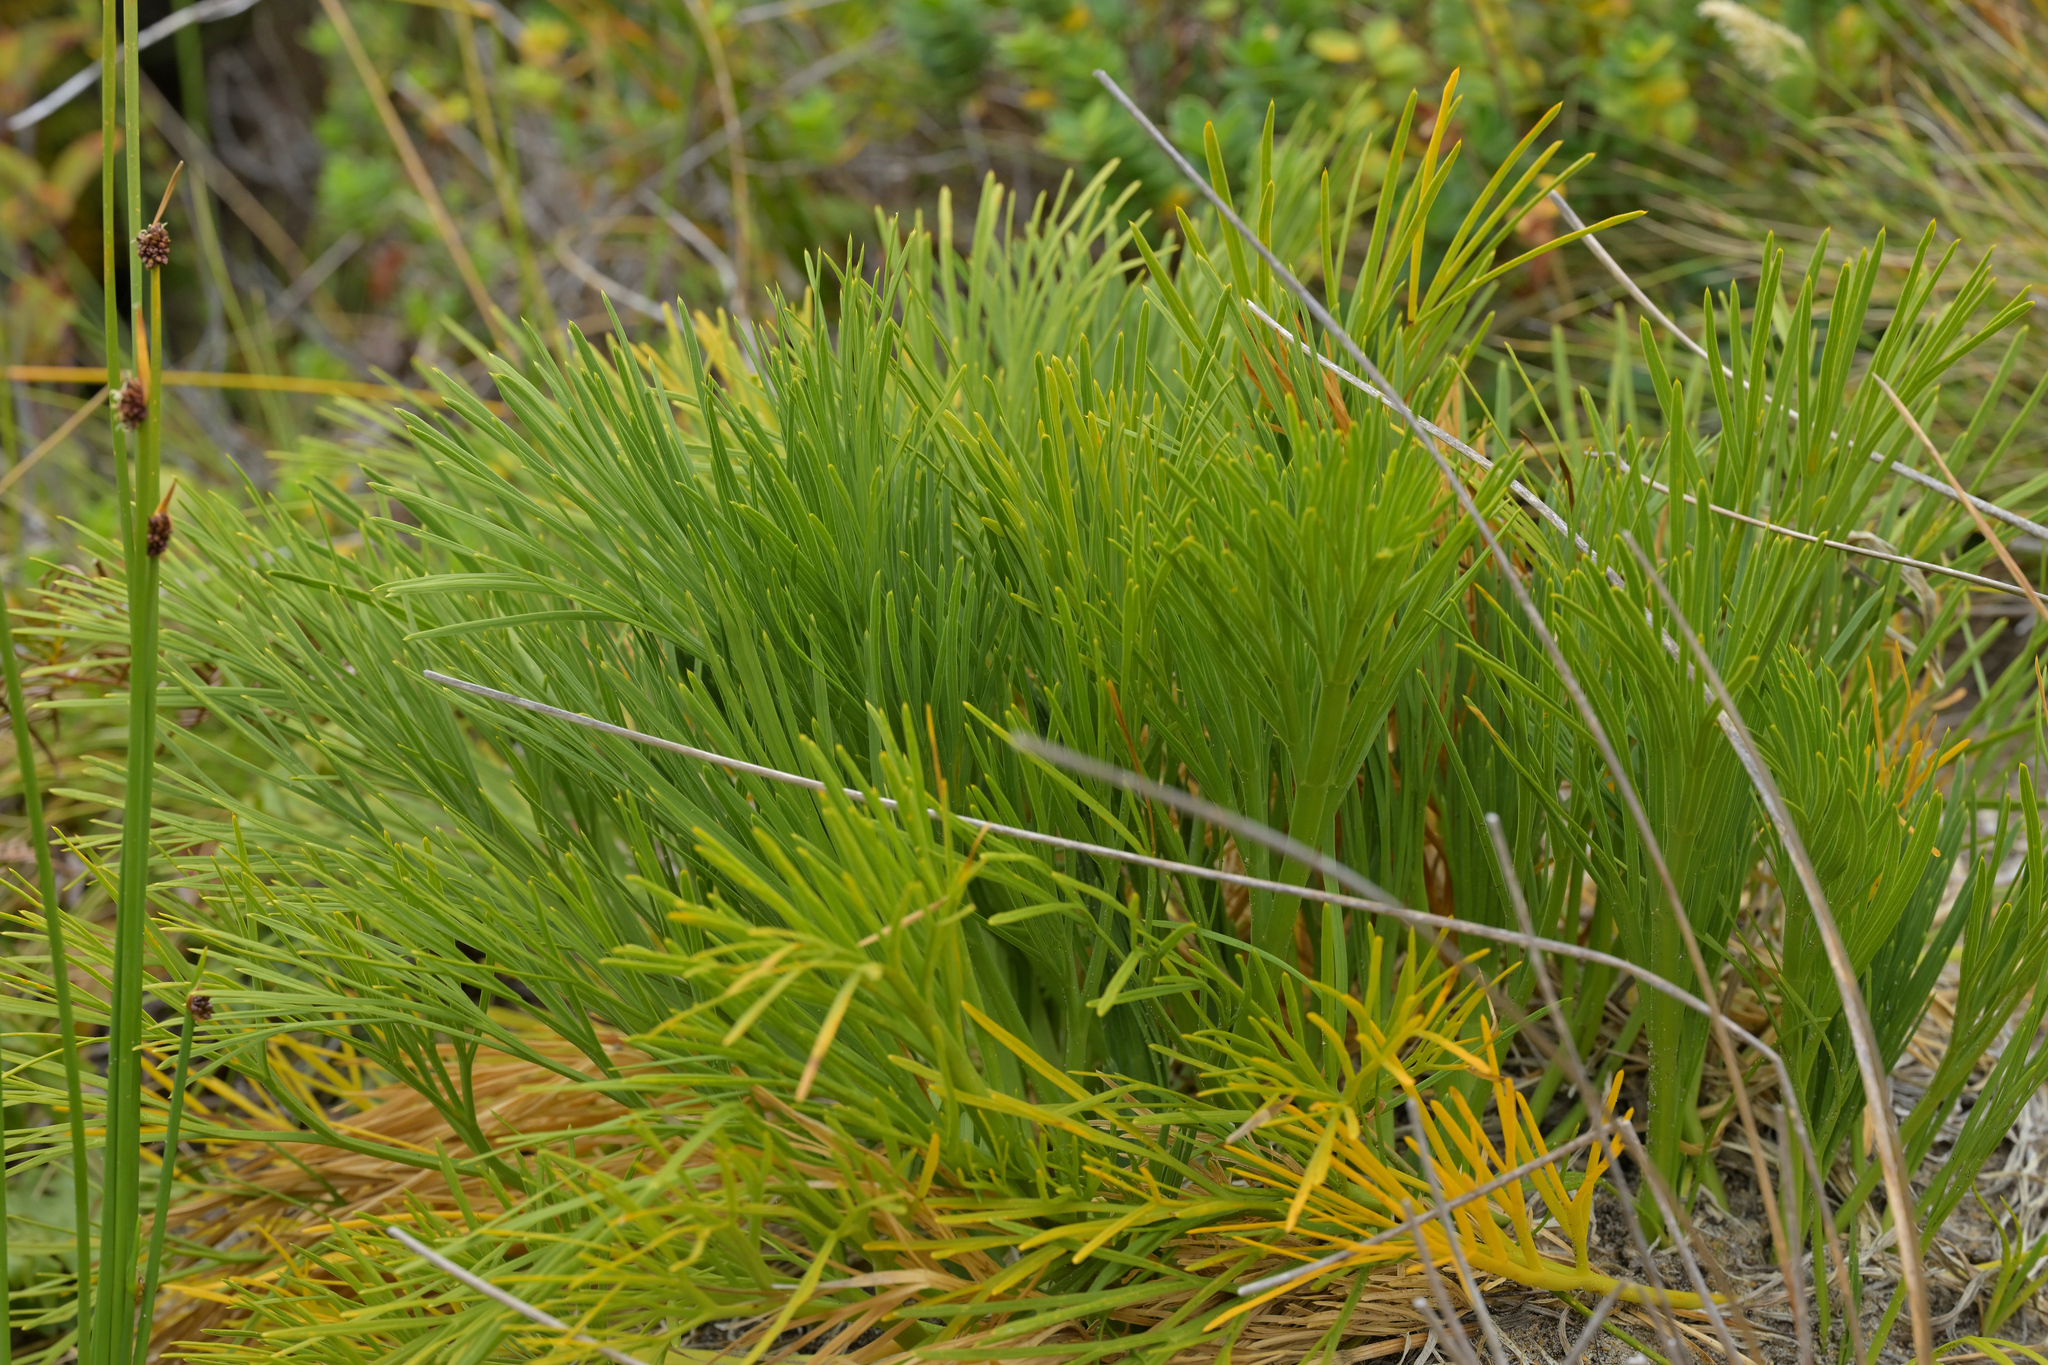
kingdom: Plantae
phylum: Tracheophyta
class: Magnoliopsida
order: Apiales
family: Apiaceae
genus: Aciphylla
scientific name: Aciphylla dieffenbachii
